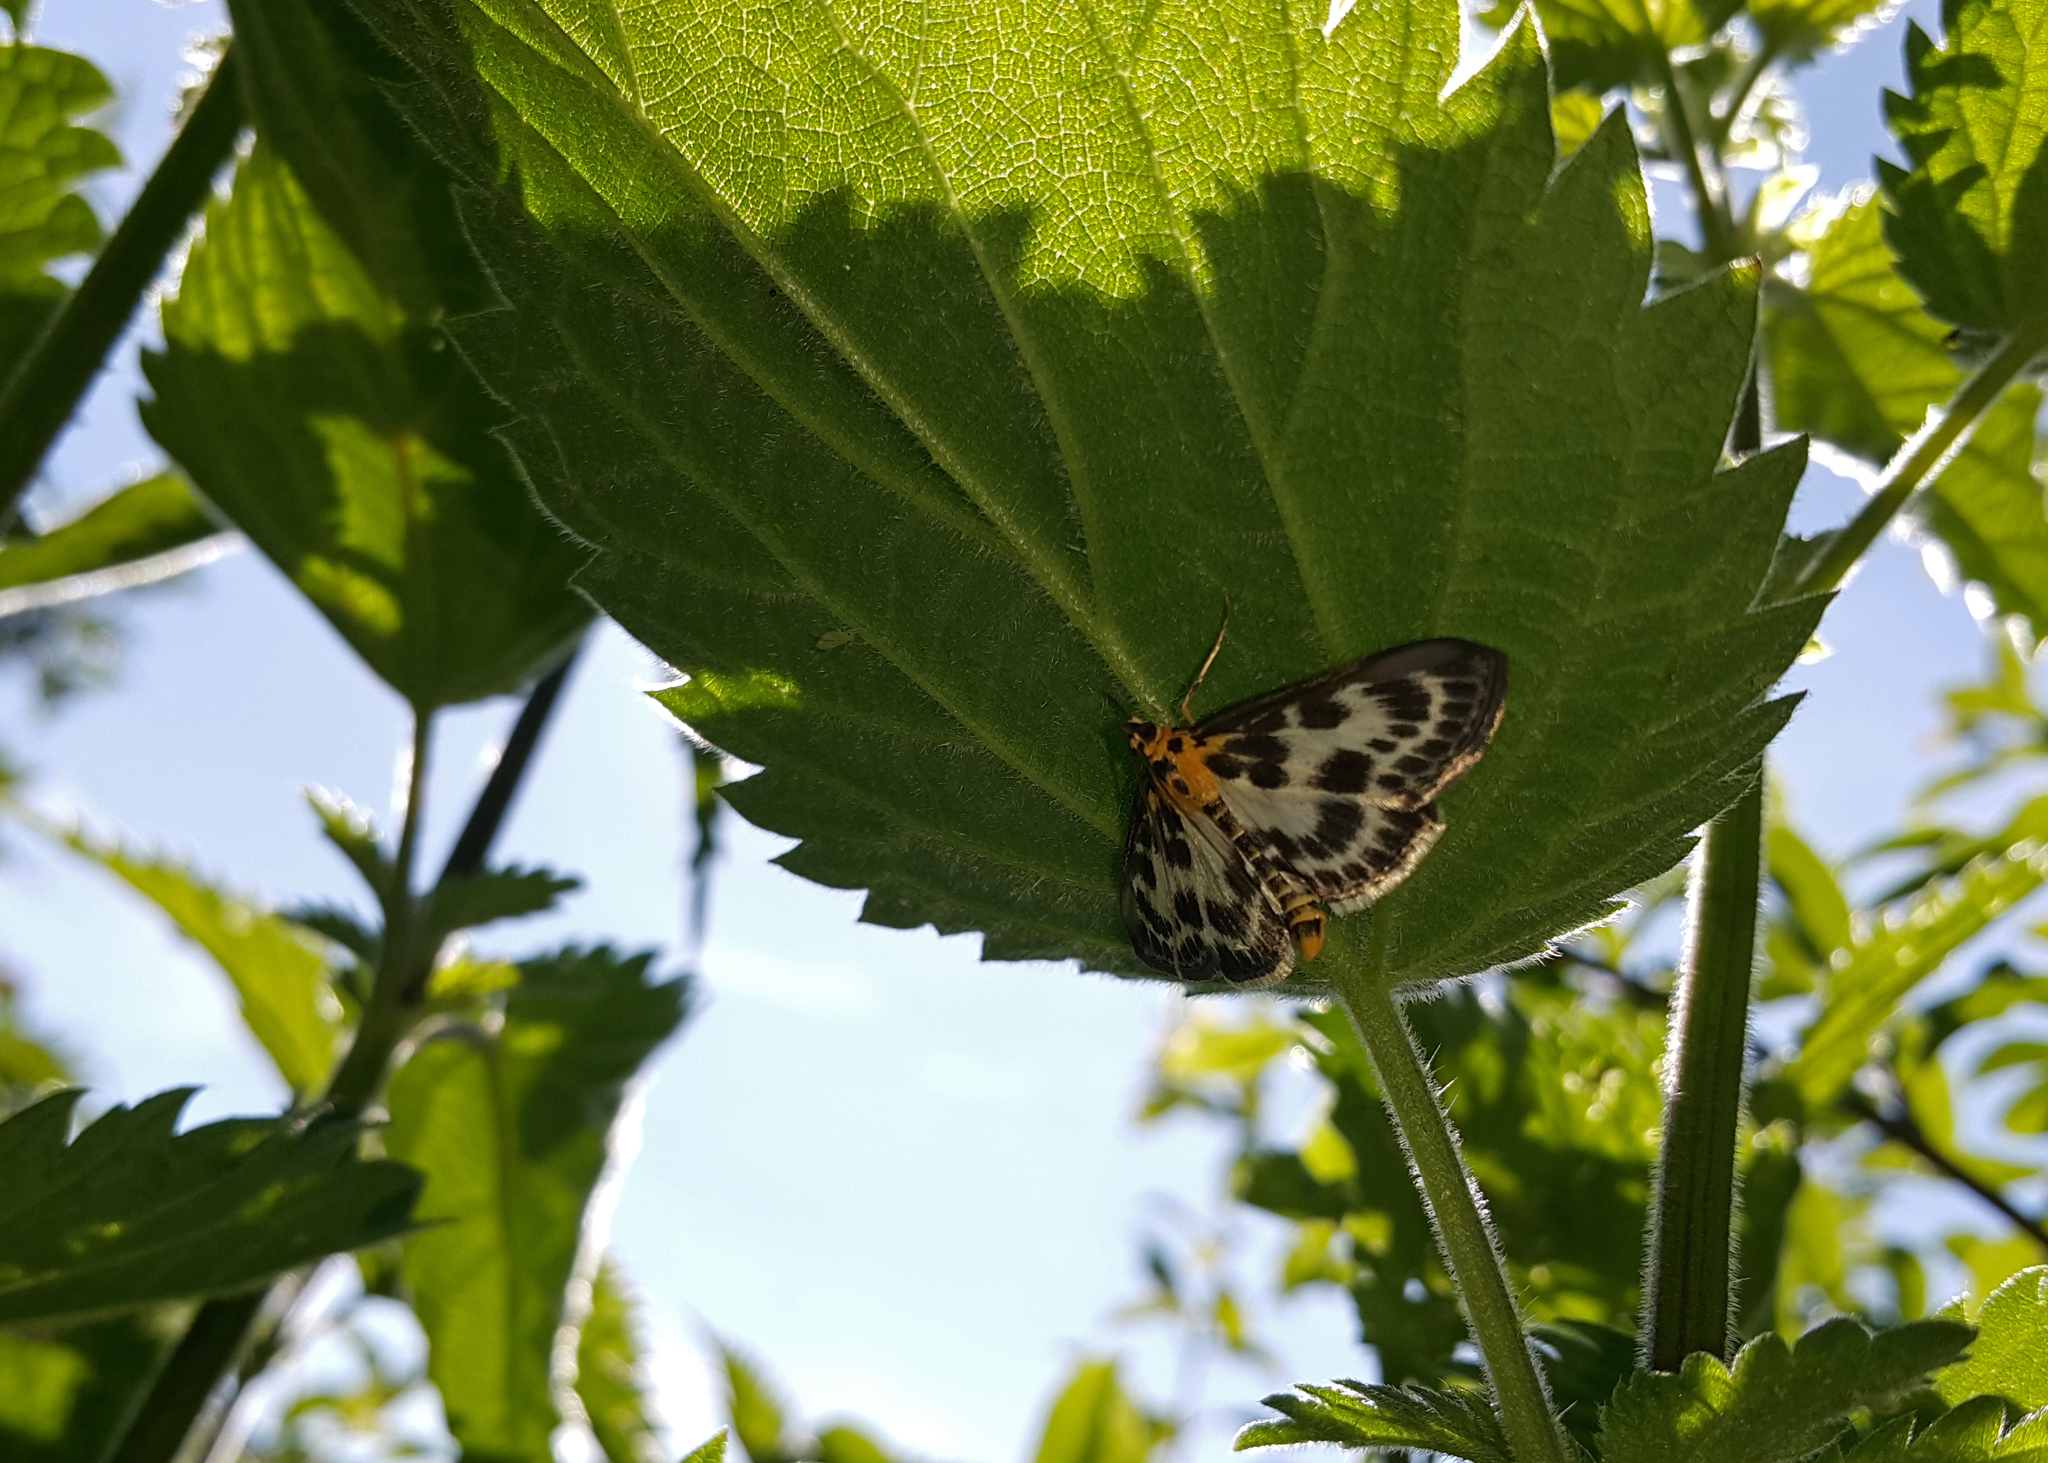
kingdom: Animalia
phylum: Arthropoda
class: Insecta
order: Lepidoptera
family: Crambidae
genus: Anania
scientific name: Anania hortulata
